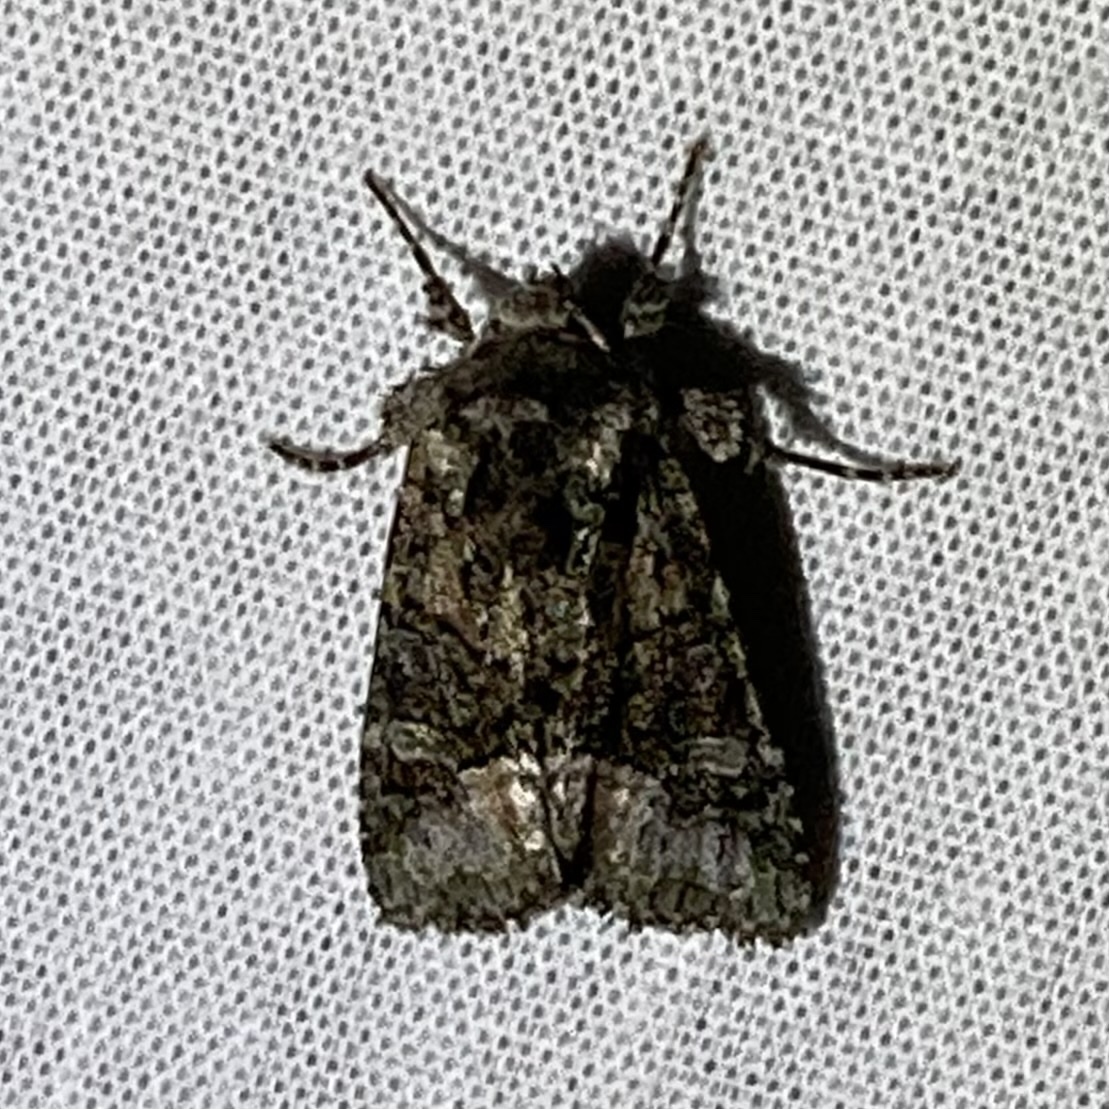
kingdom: Animalia
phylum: Arthropoda
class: Insecta
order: Lepidoptera
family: Noctuidae
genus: Lacinipolia
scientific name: Lacinipolia olivacea
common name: Olive arches moth
